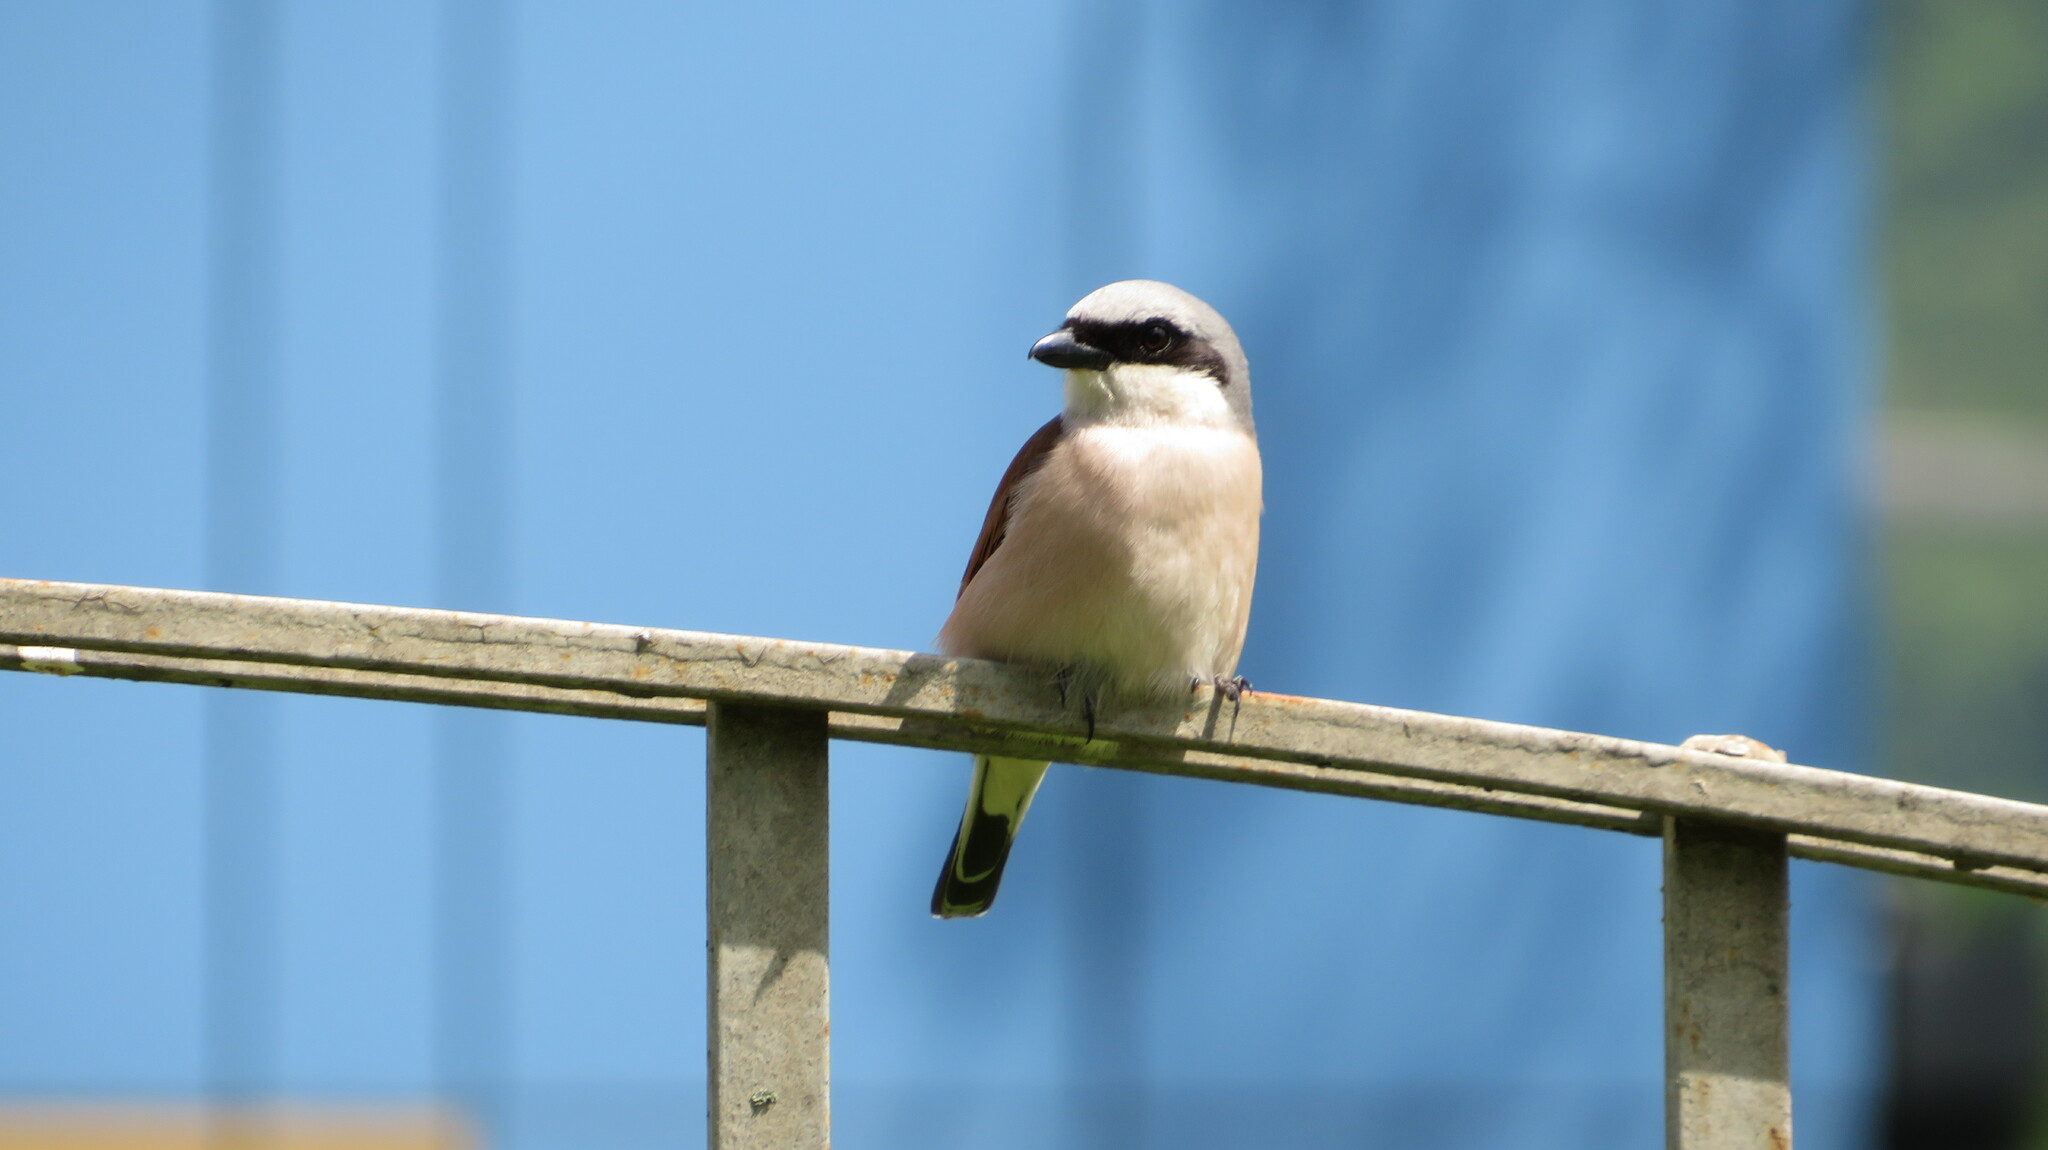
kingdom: Animalia
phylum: Chordata
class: Aves
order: Passeriformes
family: Laniidae
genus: Lanius
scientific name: Lanius collurio
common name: Red-backed shrike
